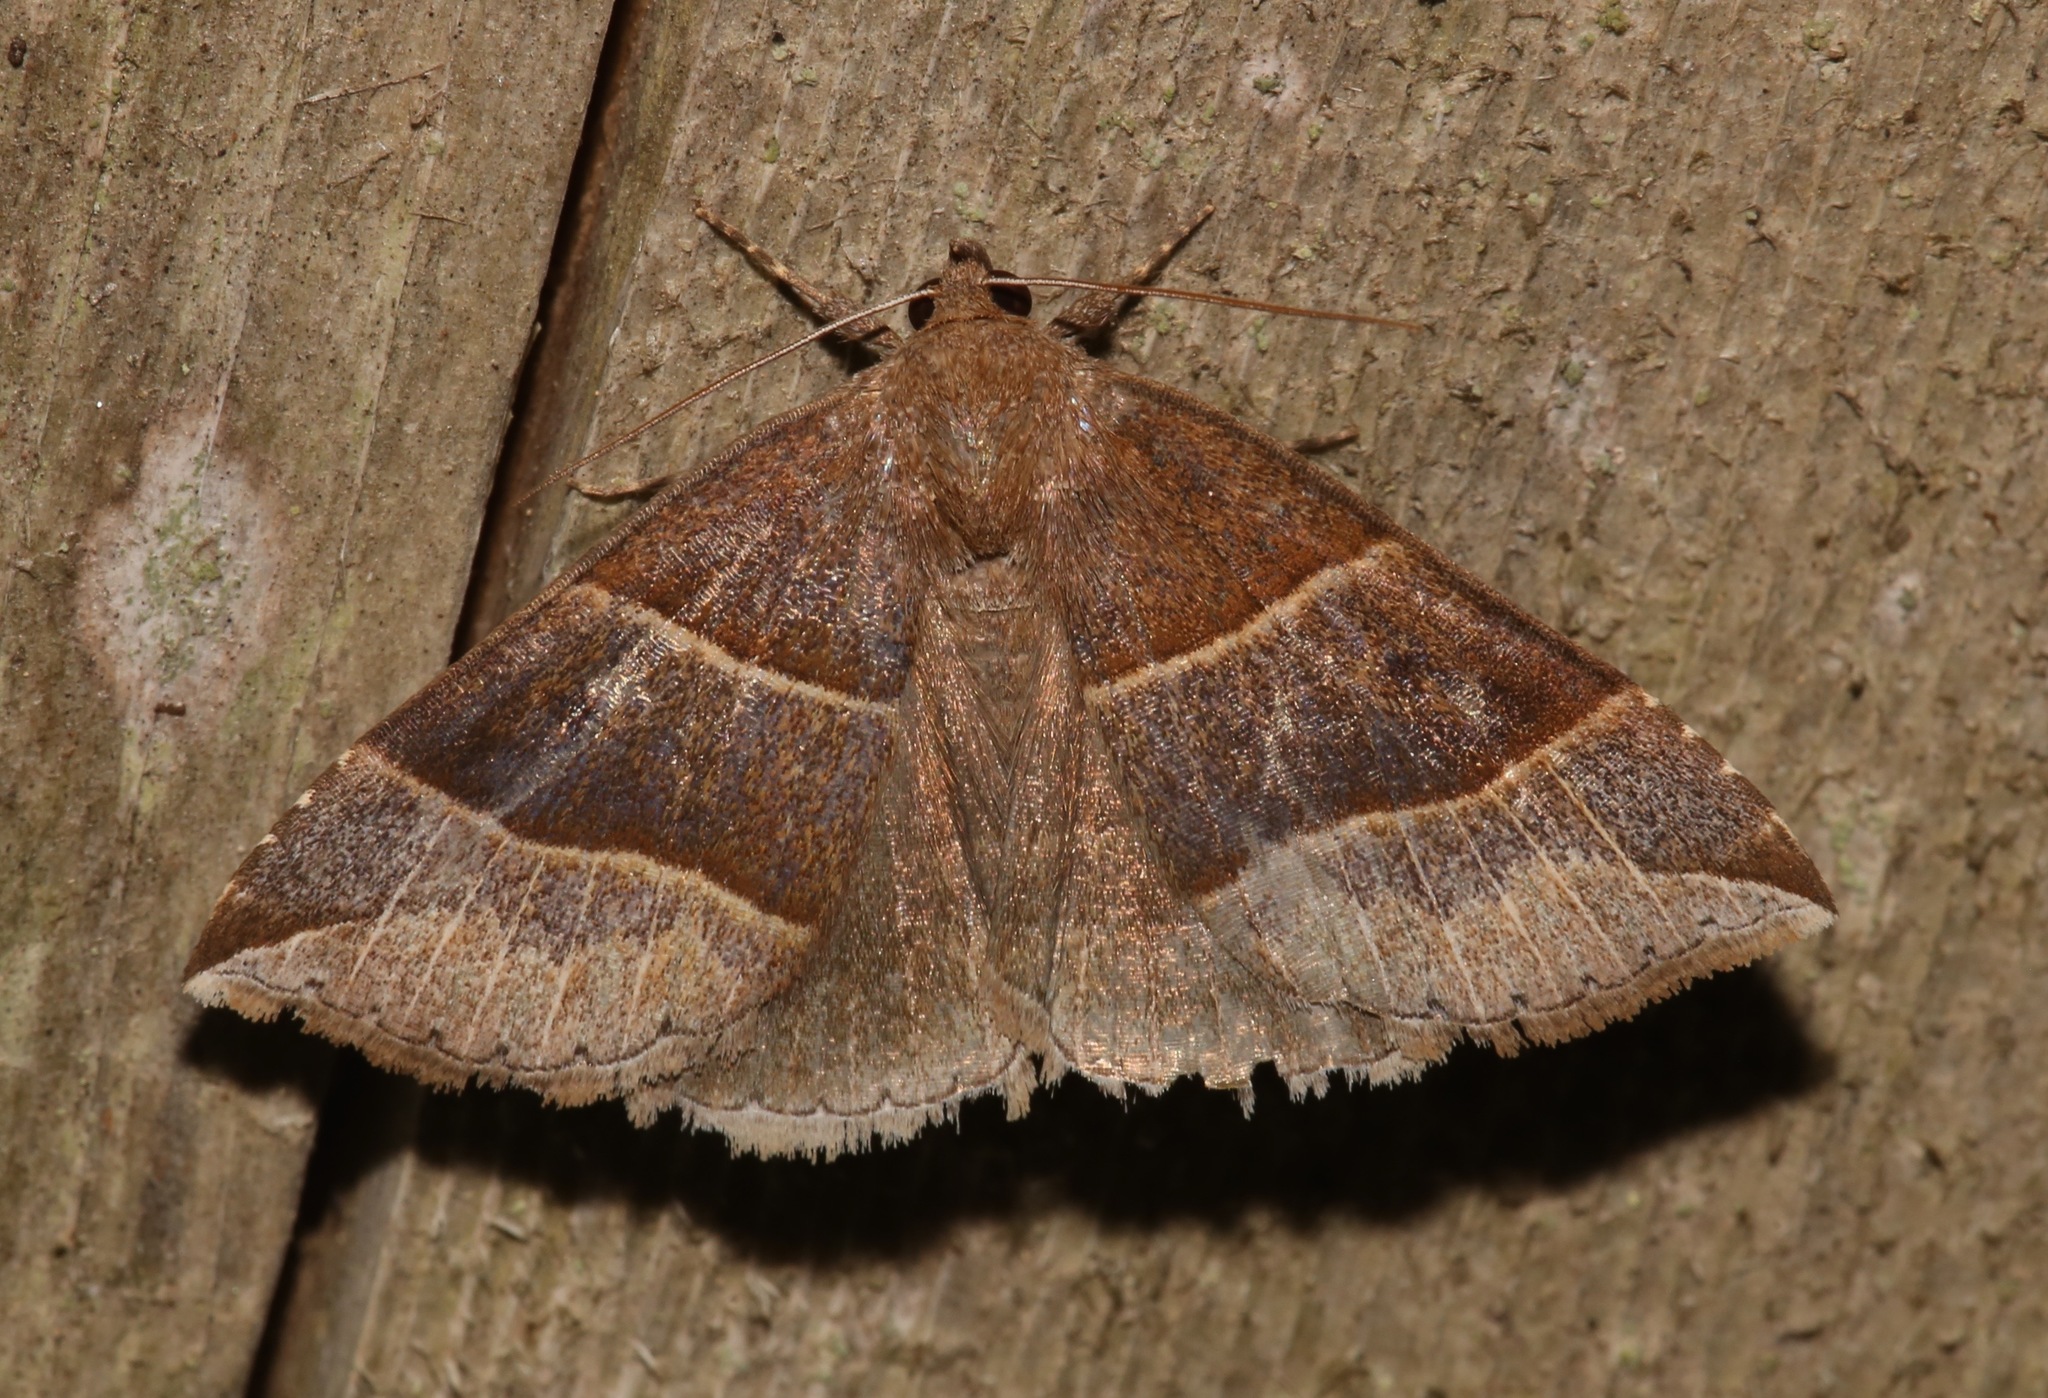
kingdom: Animalia
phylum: Arthropoda
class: Insecta
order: Lepidoptera
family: Erebidae
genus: Parallelia
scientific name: Parallelia bistriaris
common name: Maple looper moth
